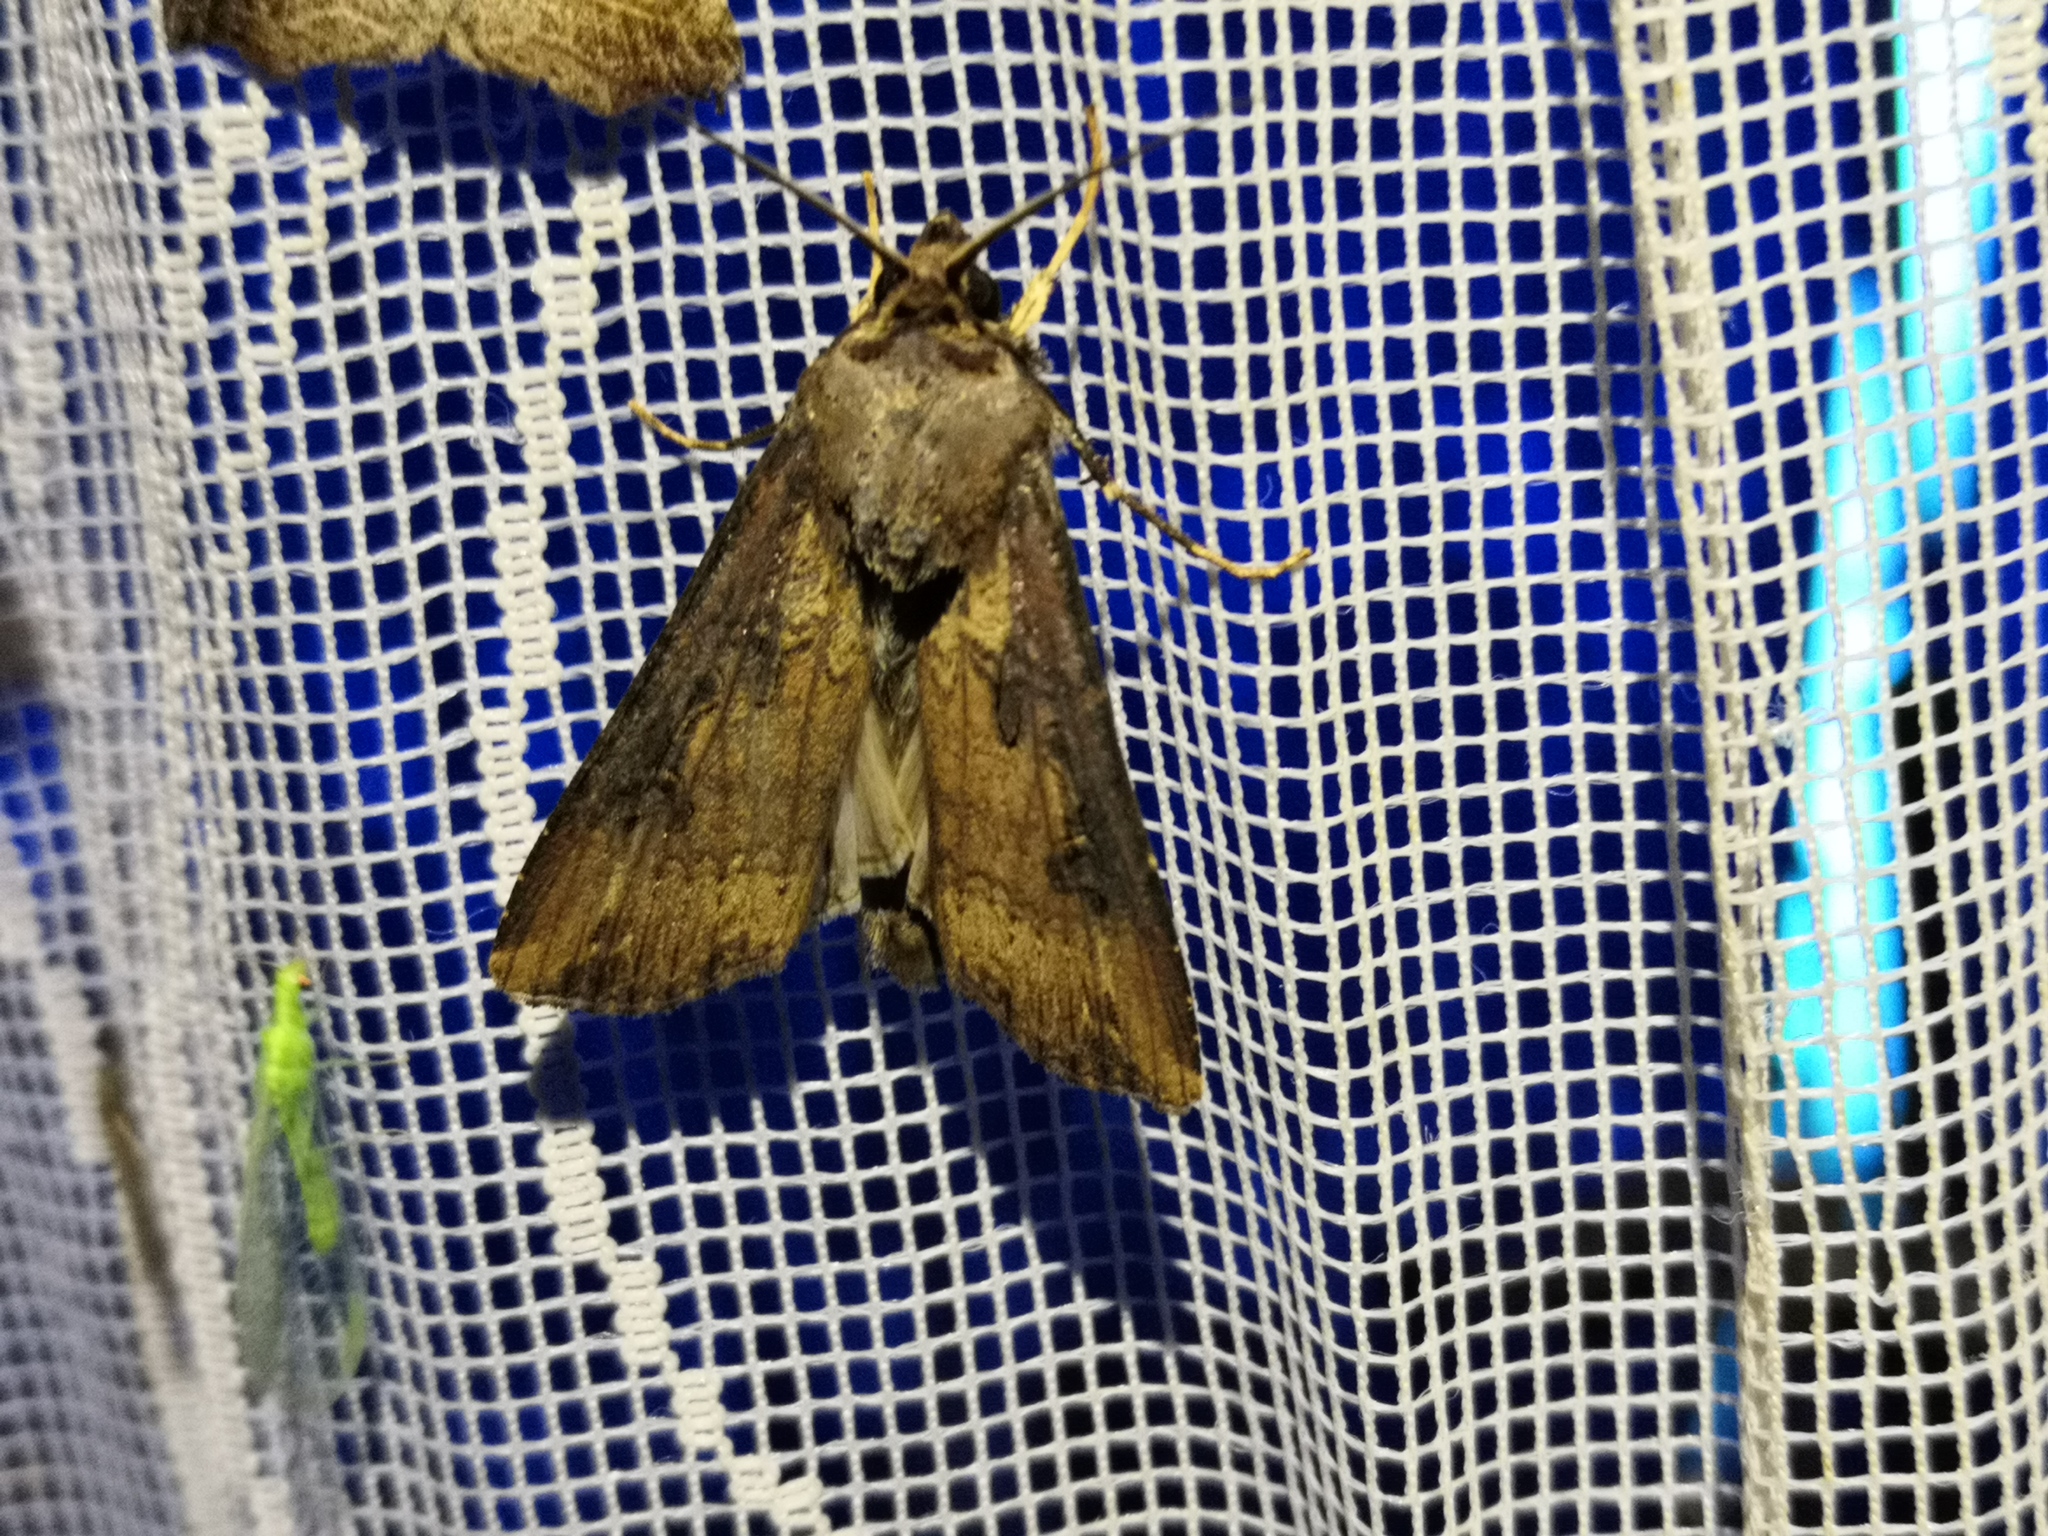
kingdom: Animalia
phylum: Arthropoda
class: Insecta
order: Lepidoptera
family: Noctuidae
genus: Agrotis
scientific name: Agrotis ipsilon
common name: Dark sword-grass
